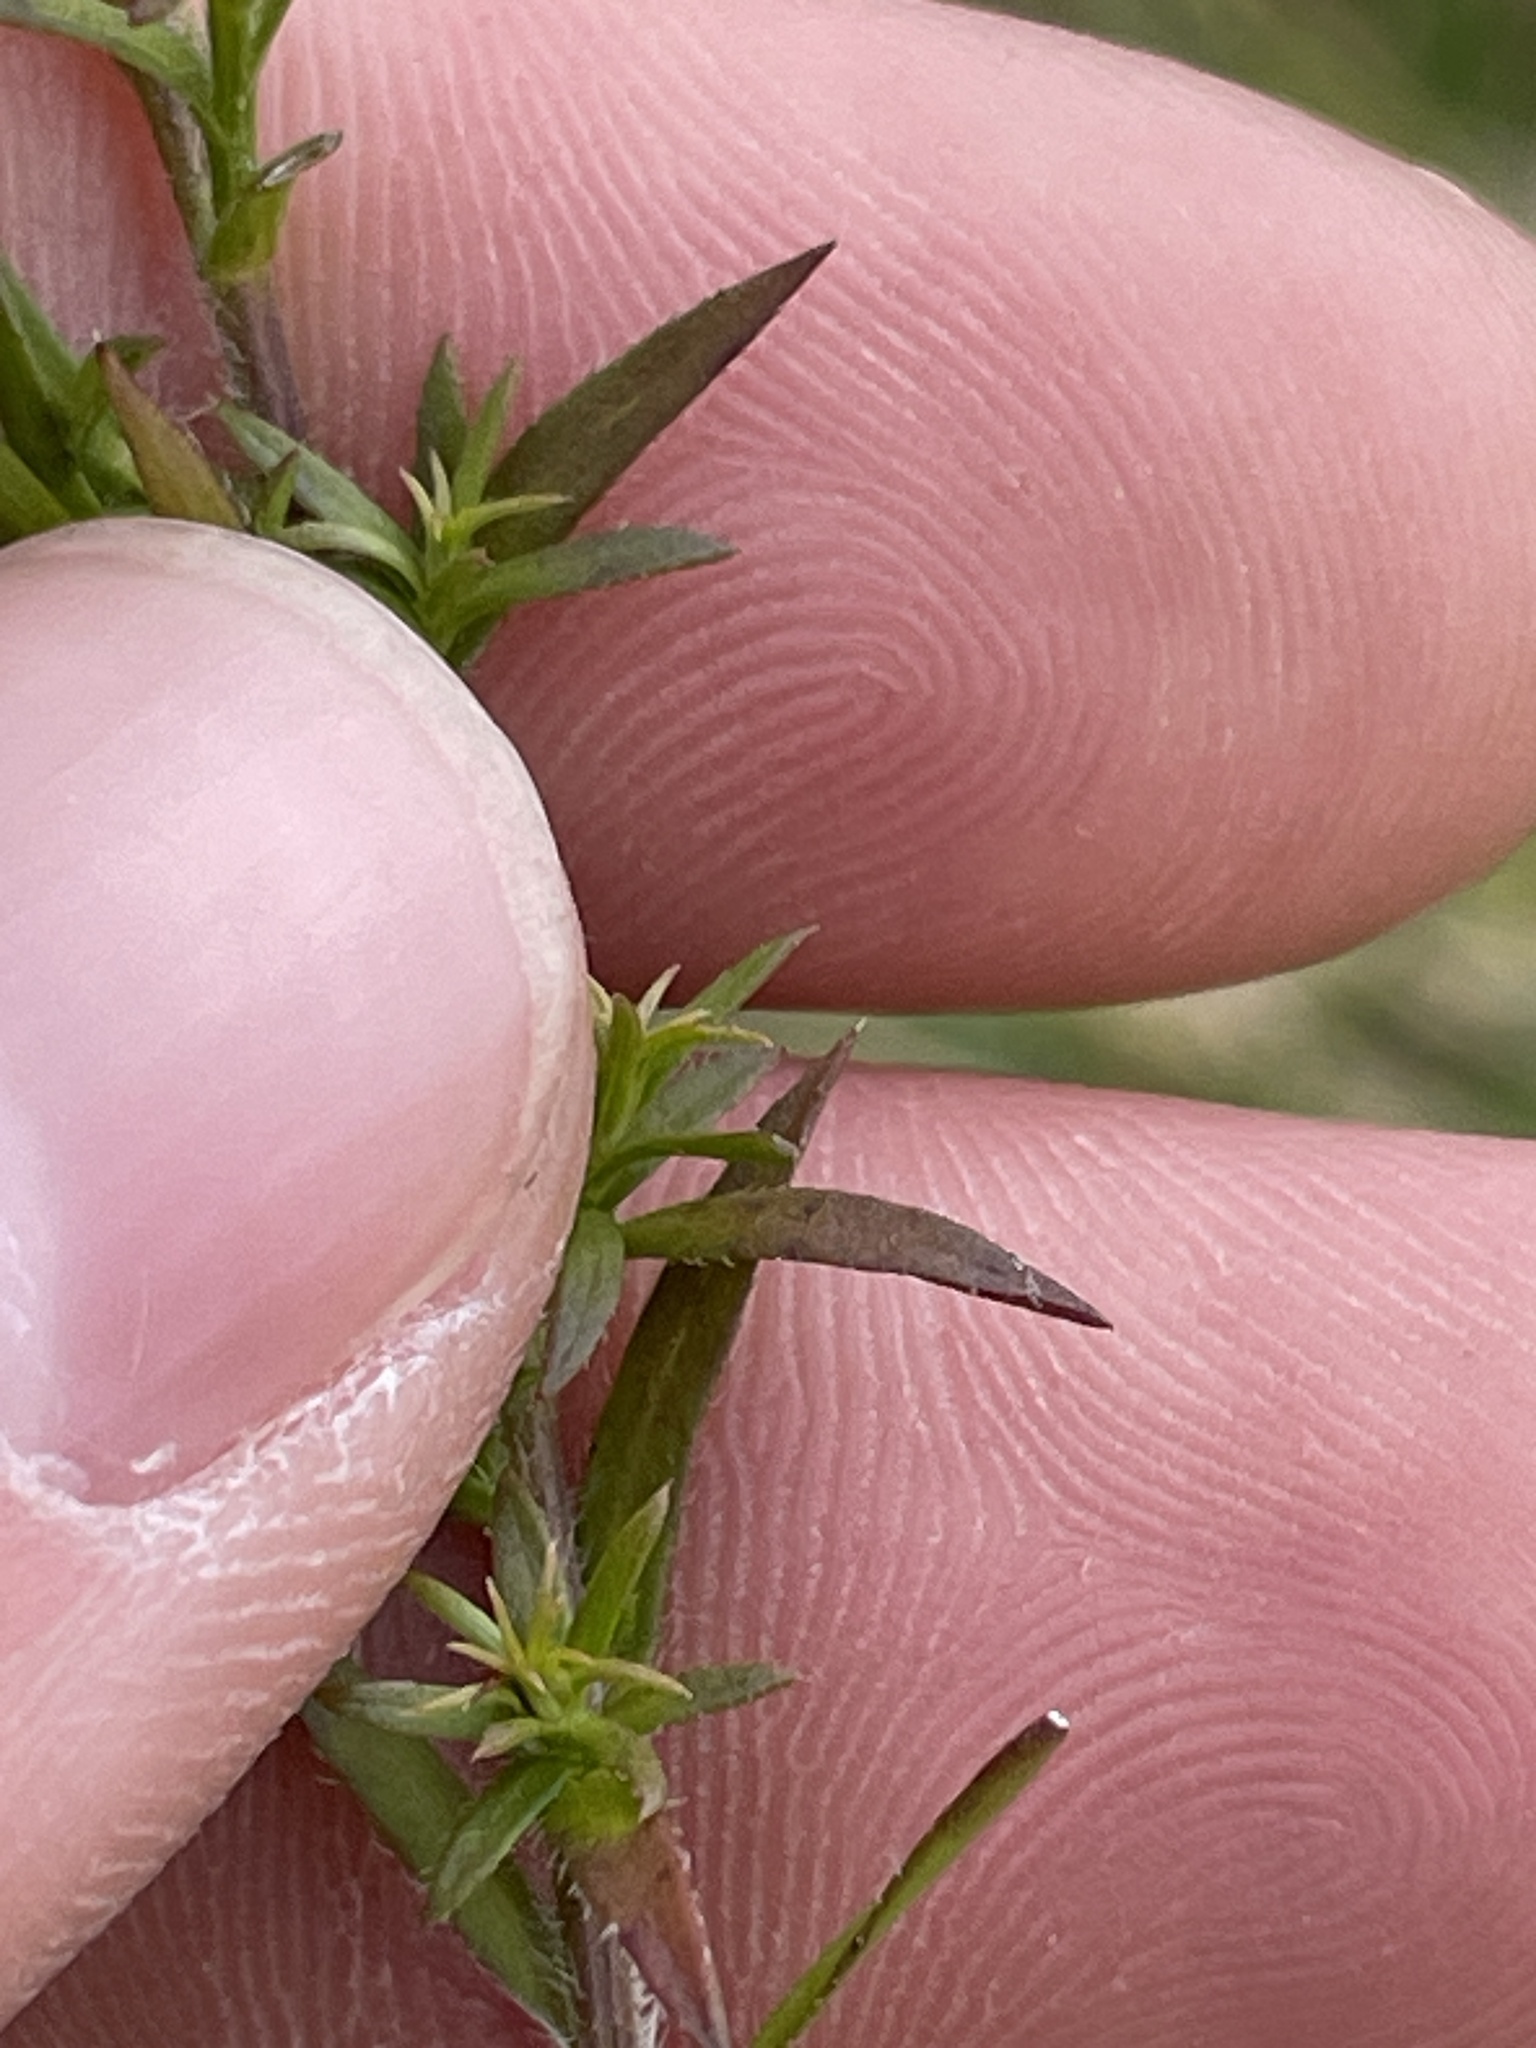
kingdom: Plantae
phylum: Tracheophyta
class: Magnoliopsida
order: Asterales
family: Asteraceae
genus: Symphyotrichum
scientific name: Symphyotrichum pilosum
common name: Awl aster
